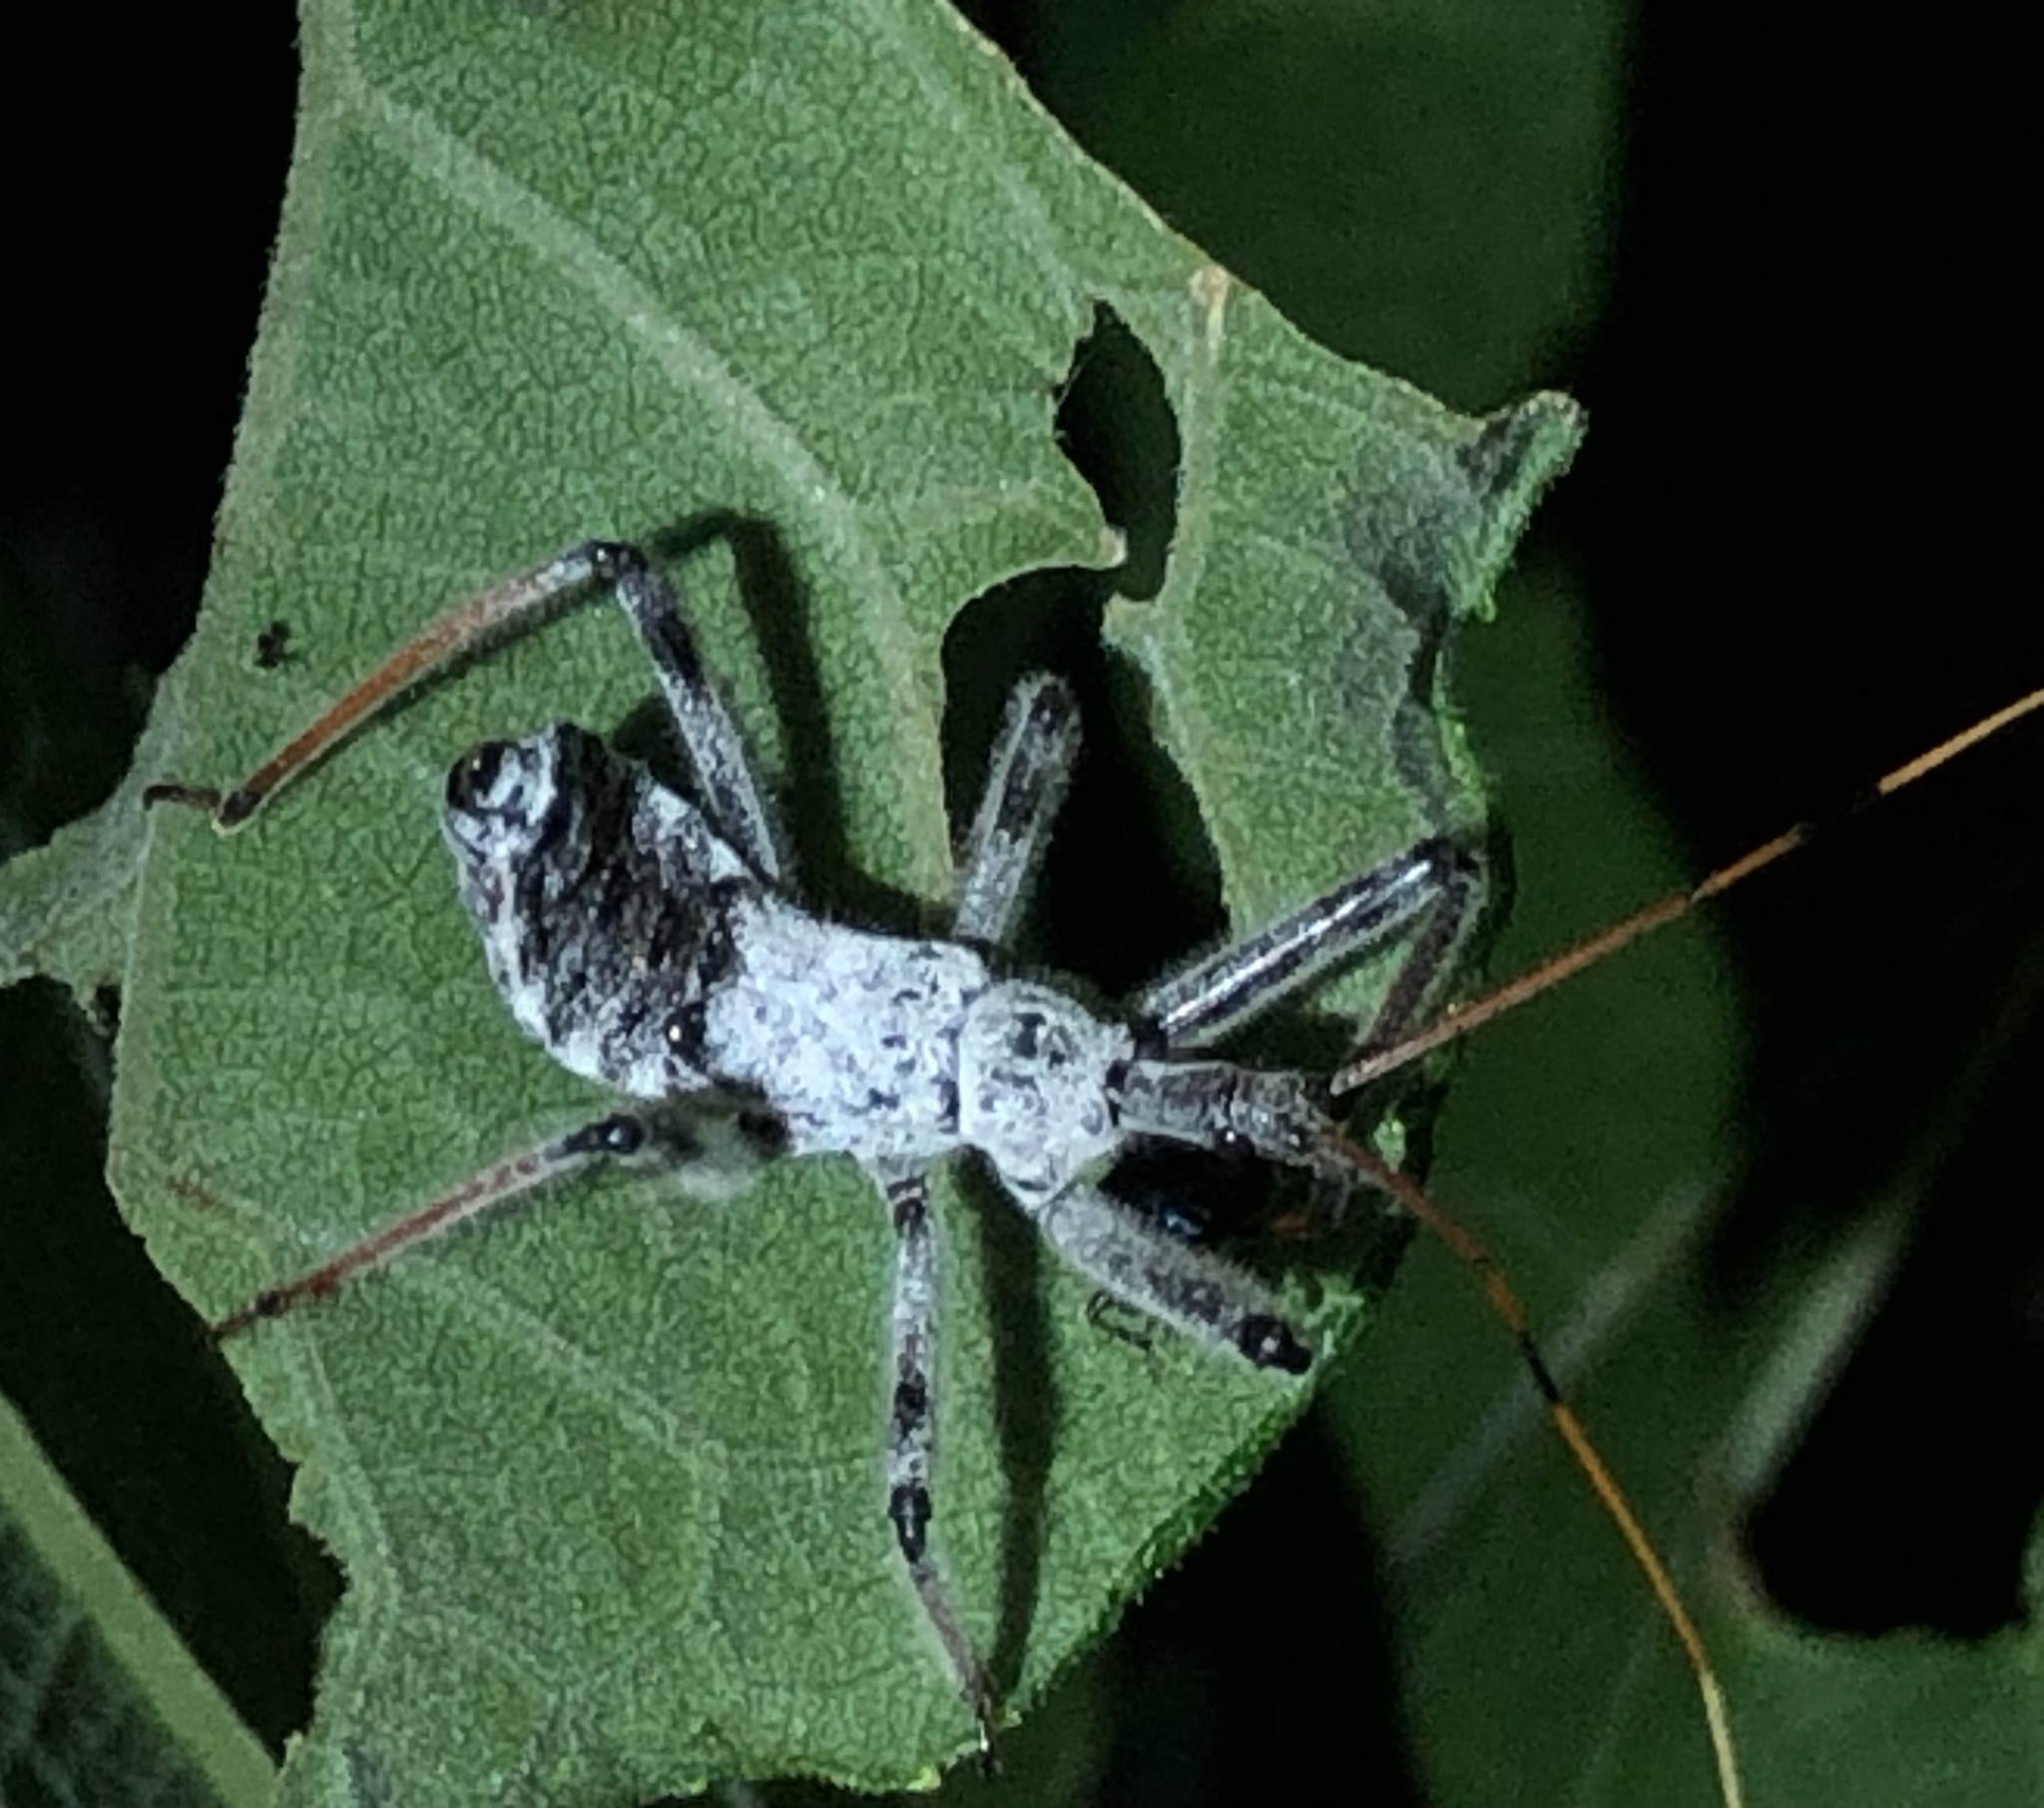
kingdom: Animalia
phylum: Arthropoda
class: Insecta
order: Hemiptera
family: Reduviidae
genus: Arilus
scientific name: Arilus cristatus
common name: North american wheel bug
